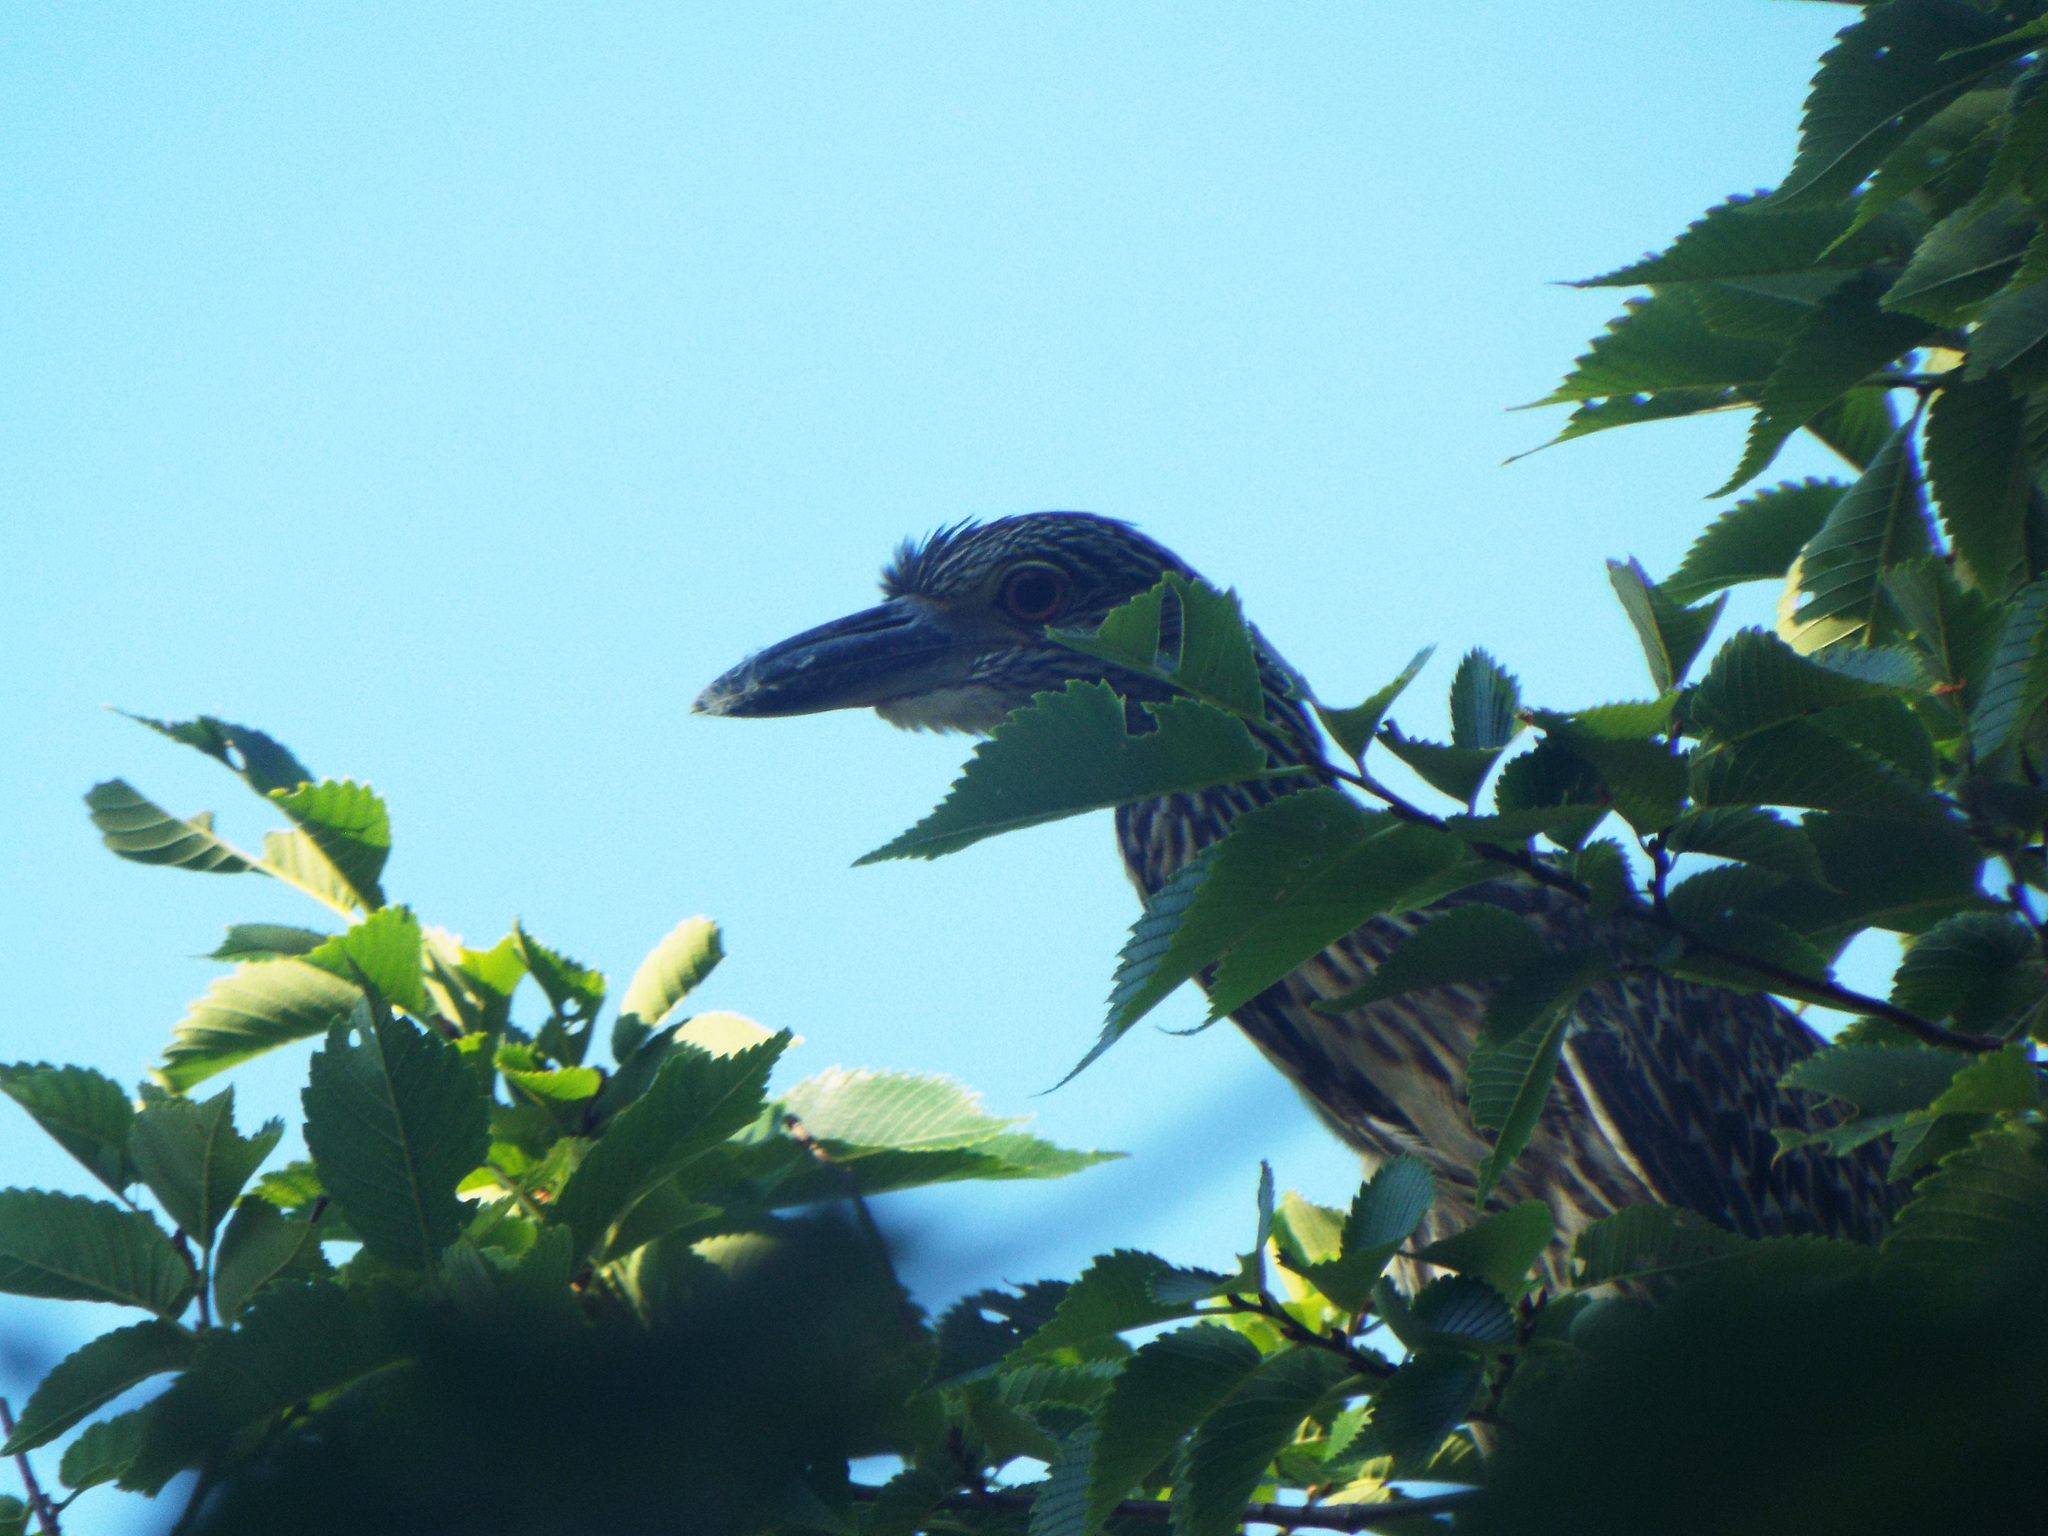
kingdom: Animalia
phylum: Chordata
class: Aves
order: Pelecaniformes
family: Ardeidae
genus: Nyctanassa
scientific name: Nyctanassa violacea
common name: Yellow-crowned night heron
